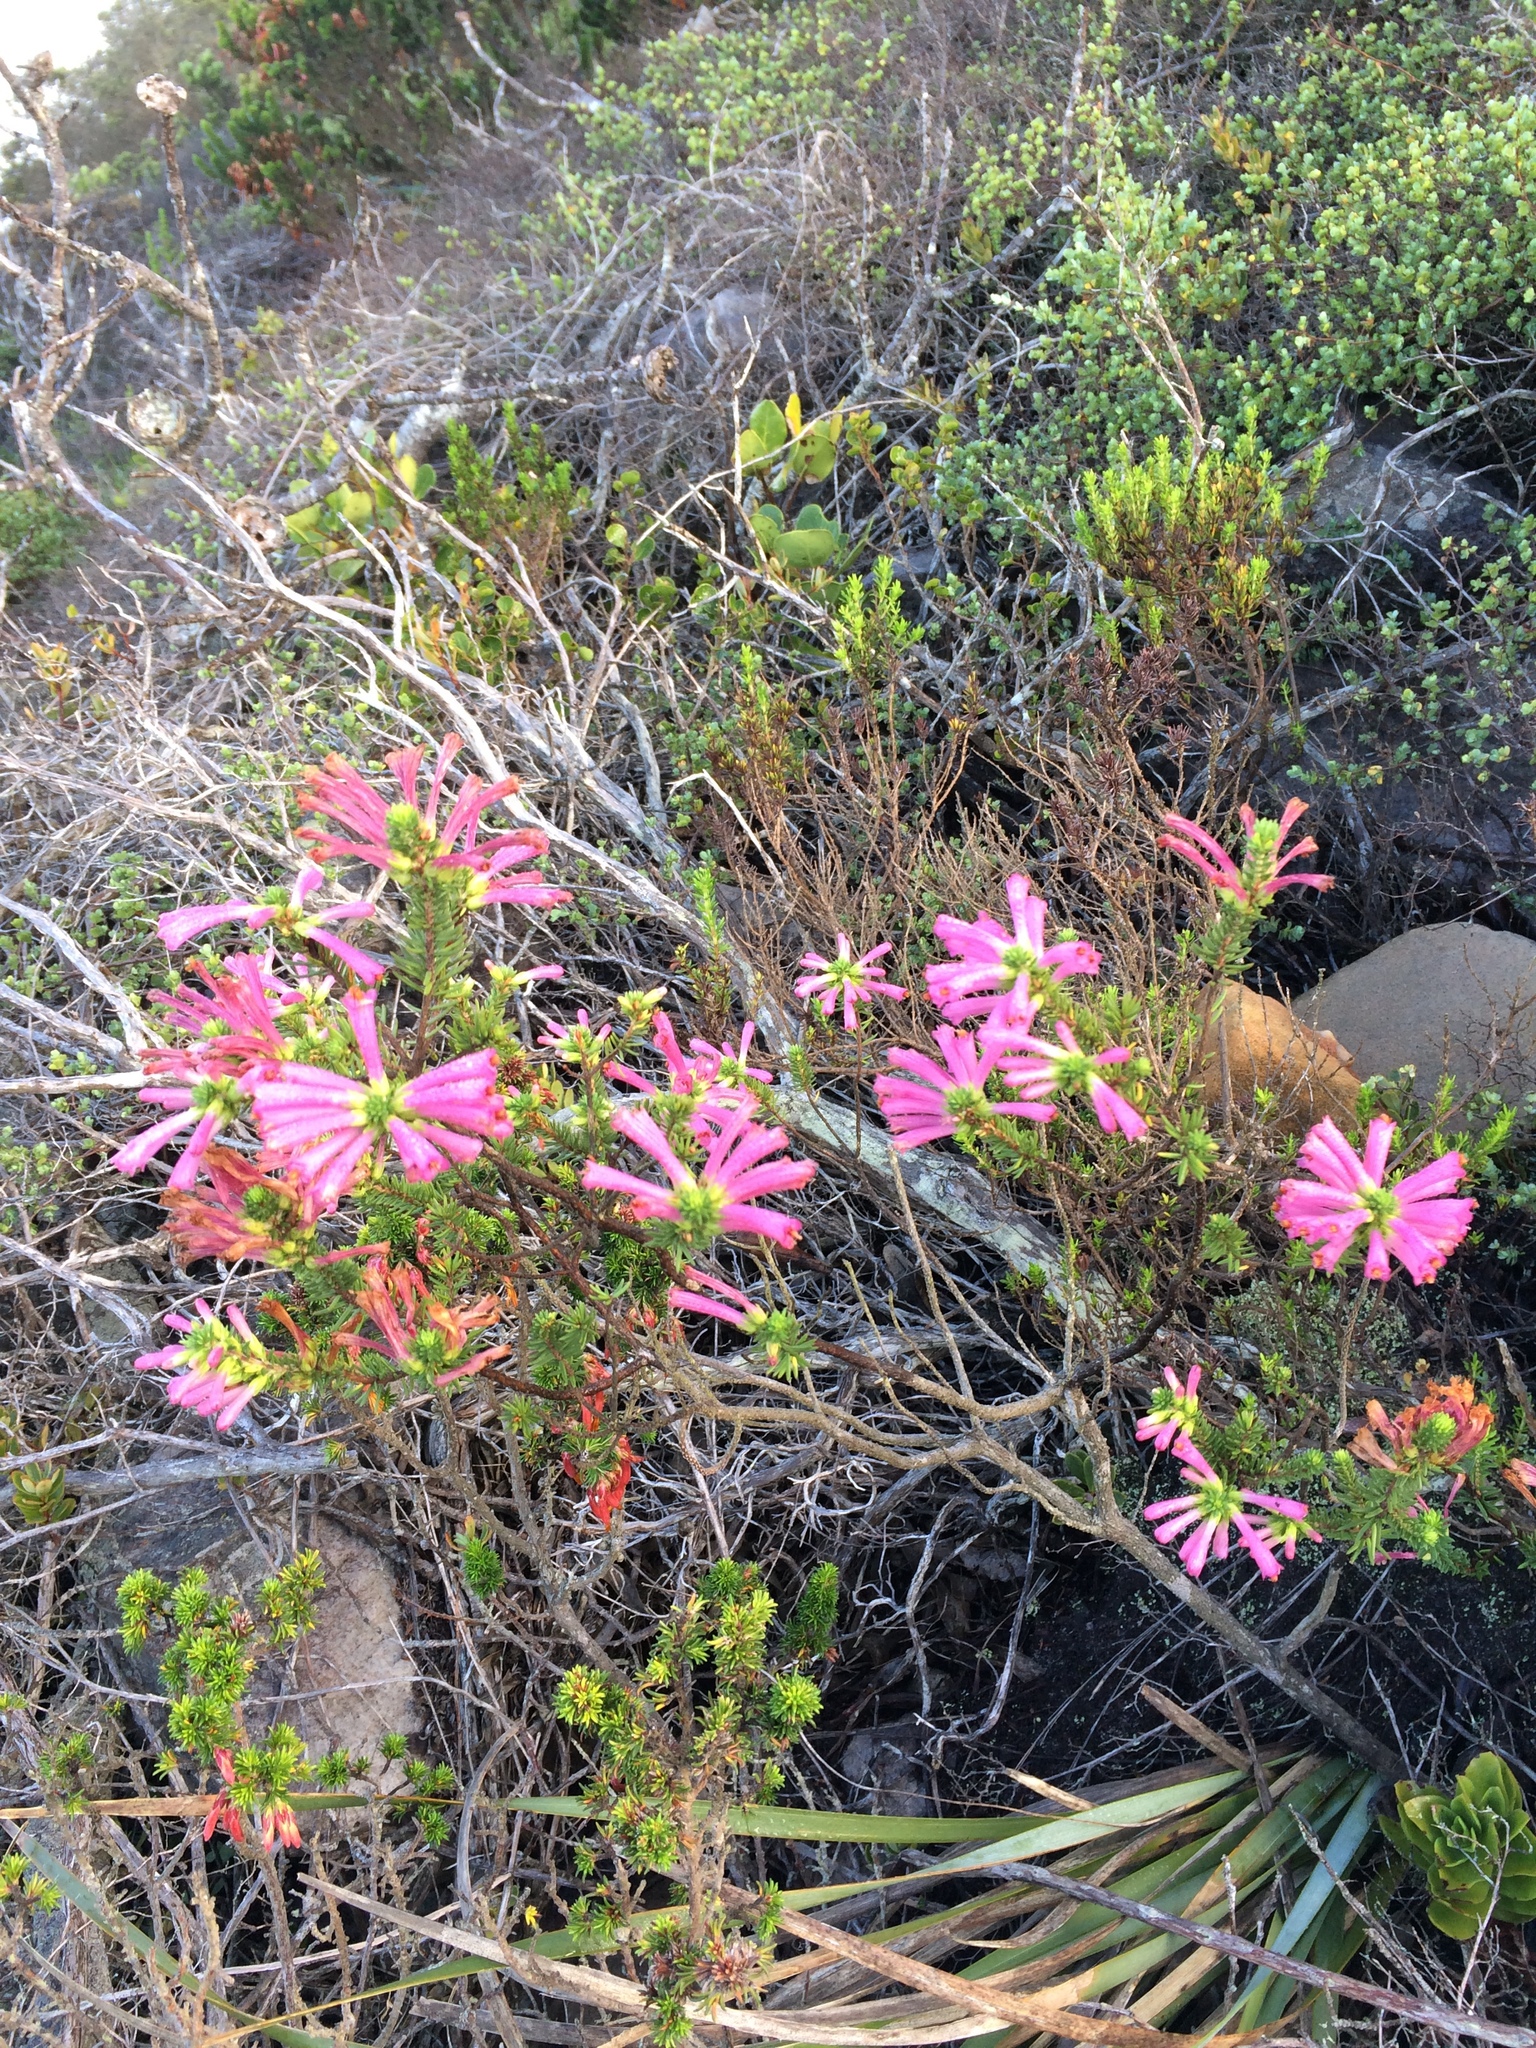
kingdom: Plantae
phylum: Tracheophyta
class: Magnoliopsida
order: Ericales
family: Ericaceae
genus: Erica
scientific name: Erica abietina
